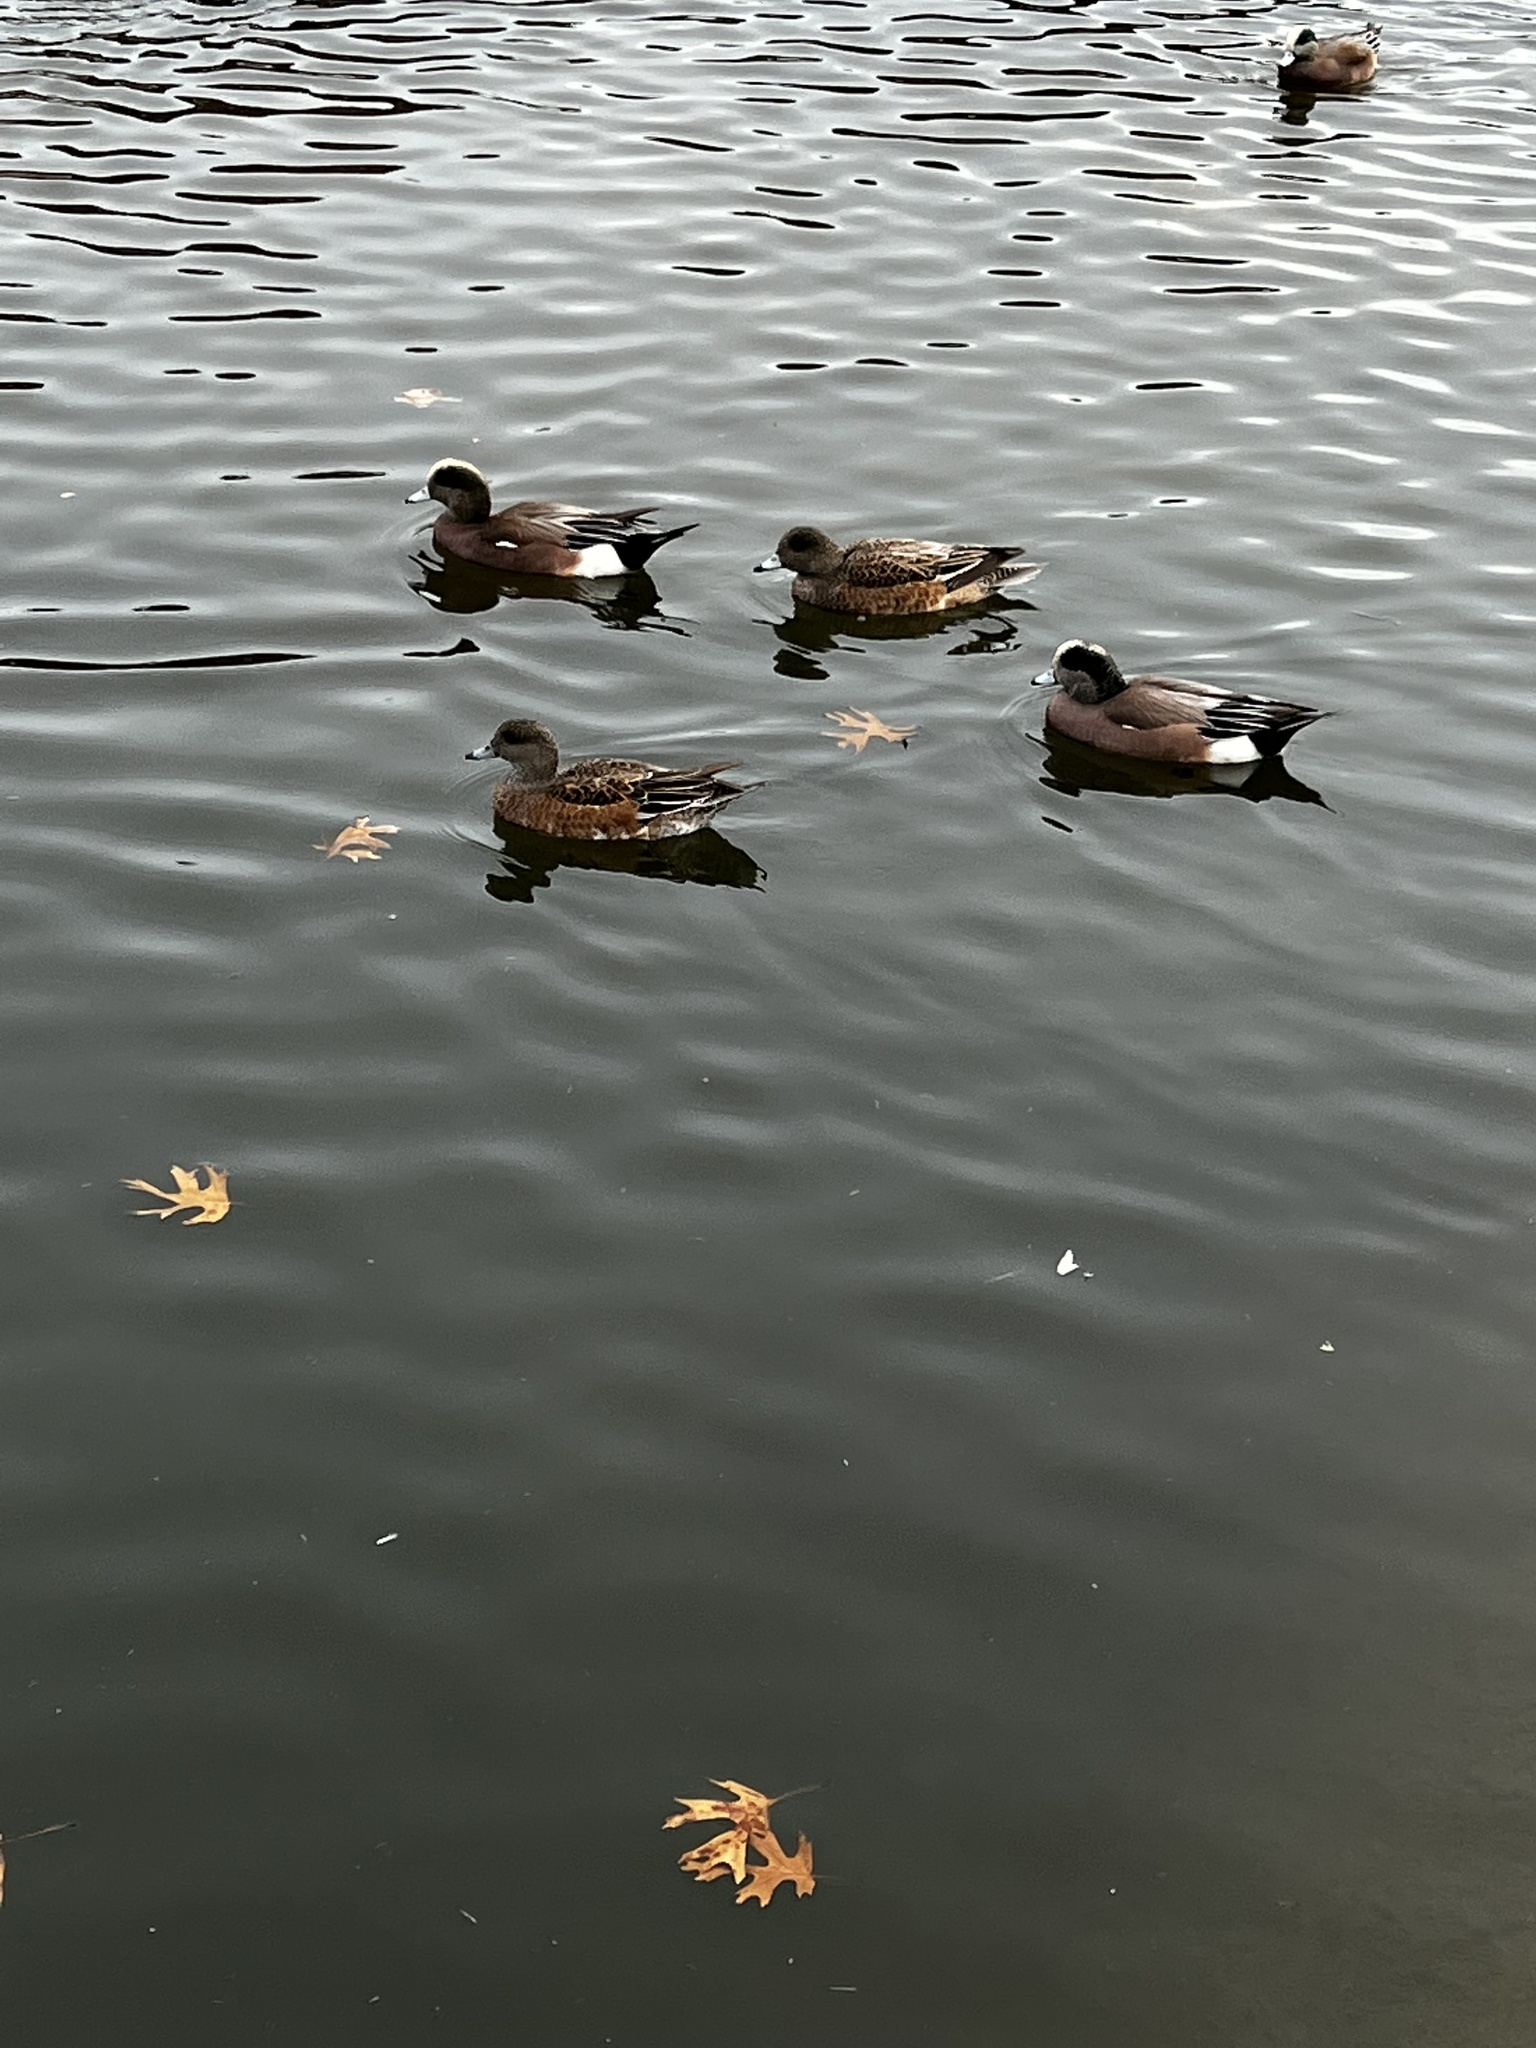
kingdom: Animalia
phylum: Chordata
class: Aves
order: Anseriformes
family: Anatidae
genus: Mareca
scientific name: Mareca americana
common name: American wigeon
